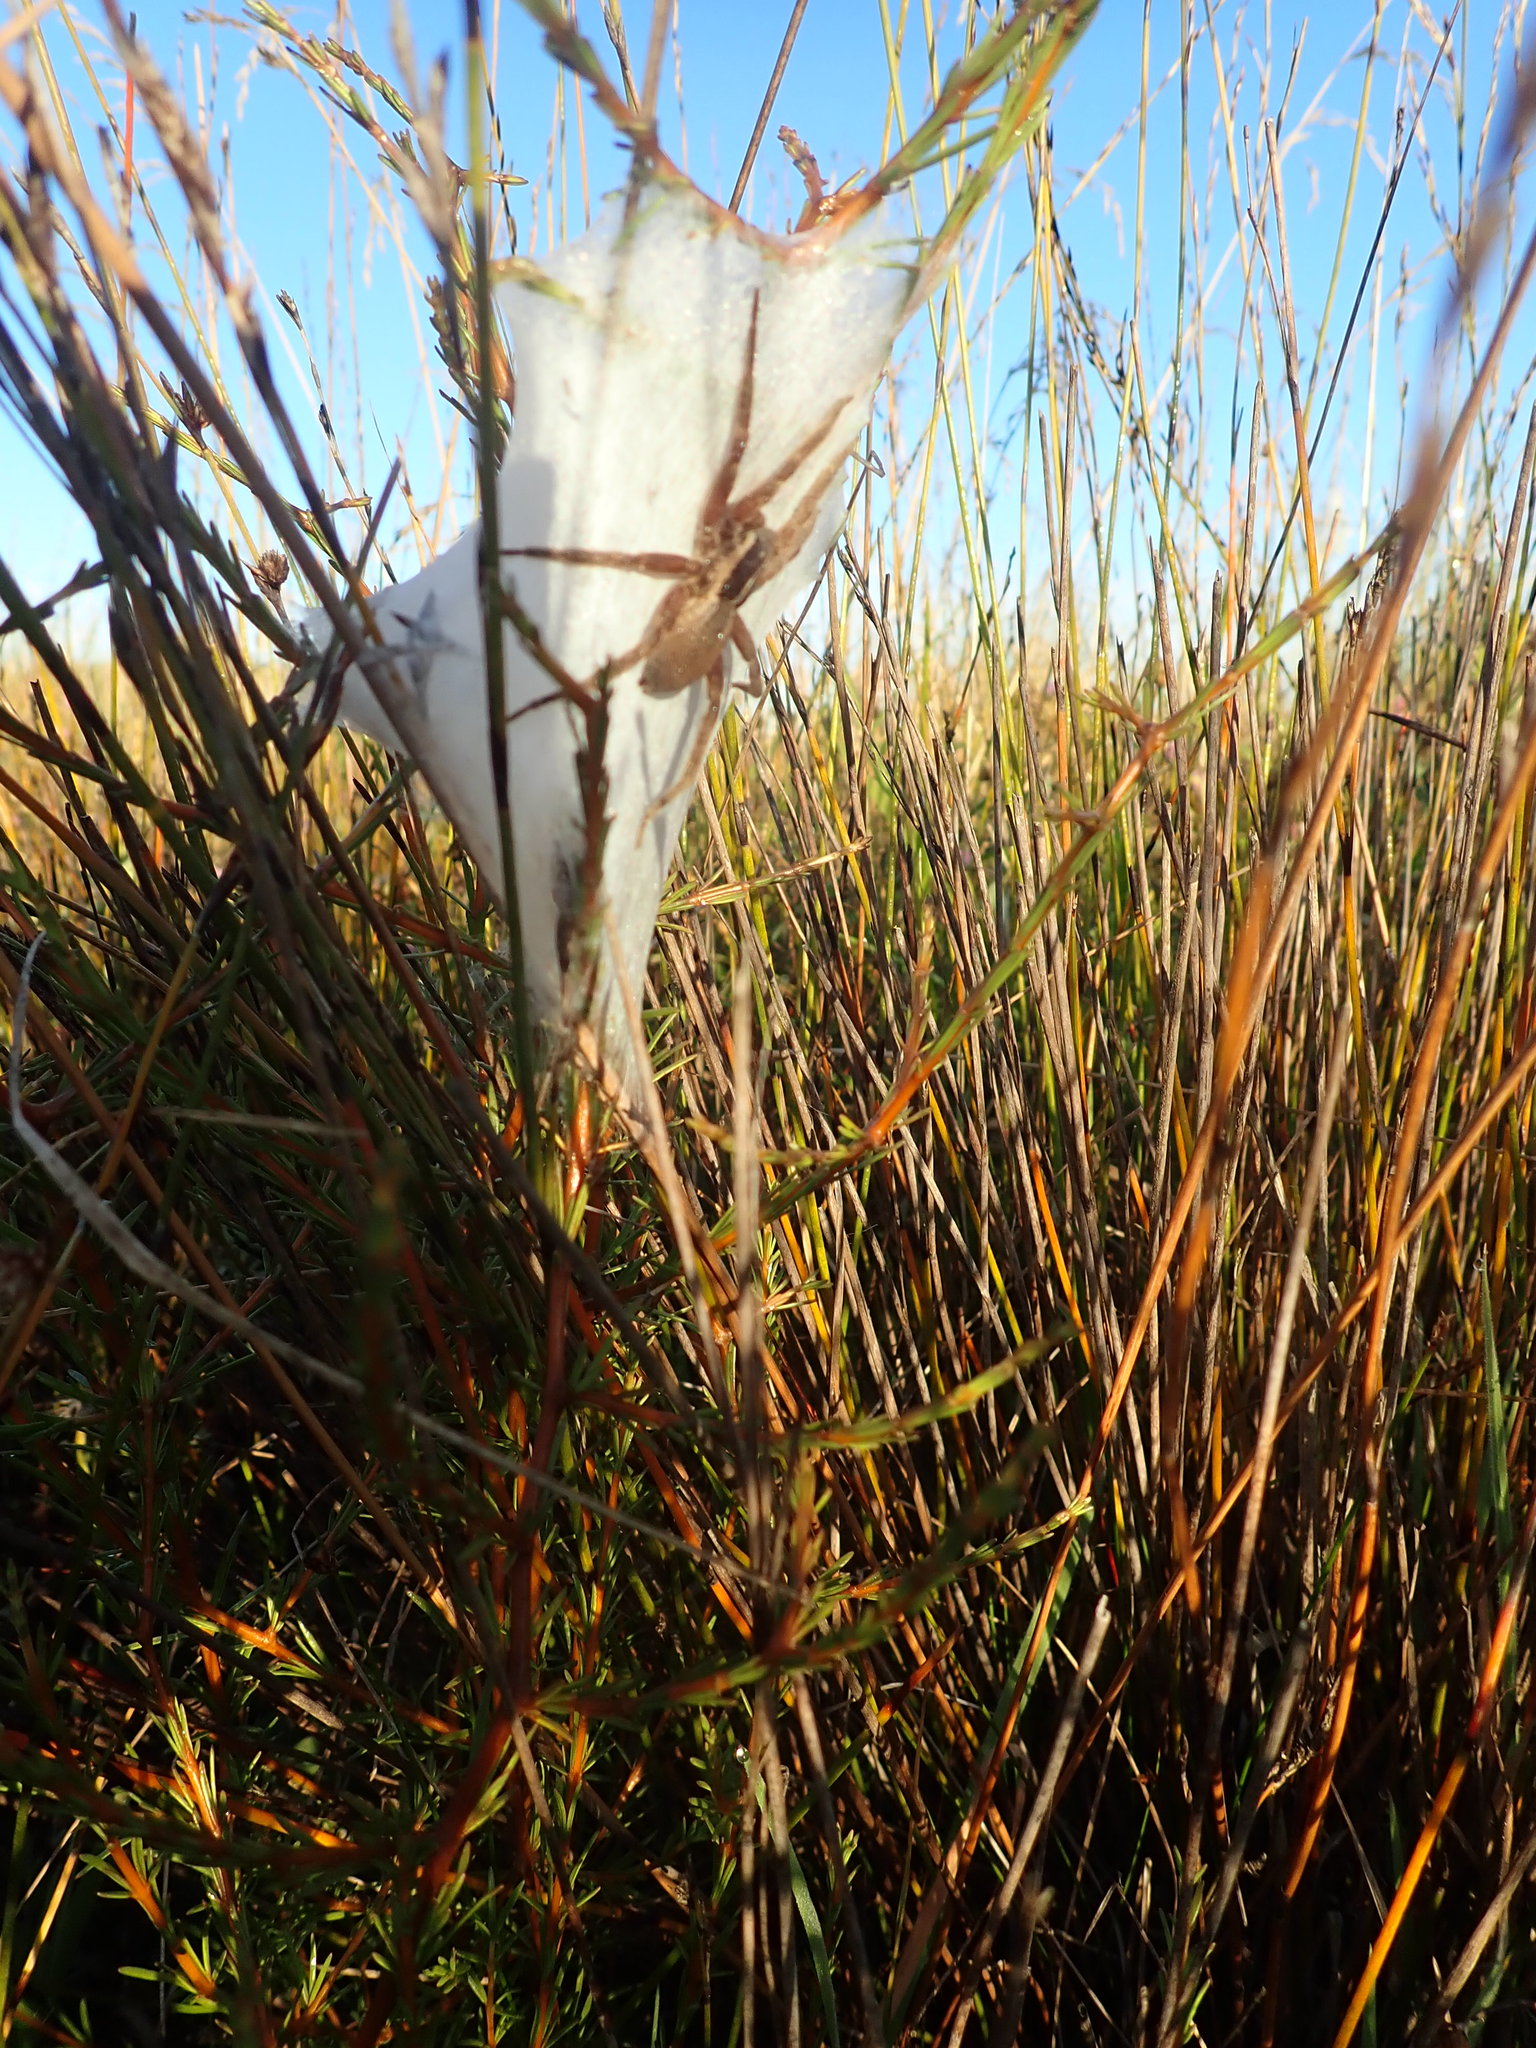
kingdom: Animalia
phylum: Arthropoda
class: Arachnida
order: Araneae
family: Pisauridae
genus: Dolomedes
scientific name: Dolomedes minor
